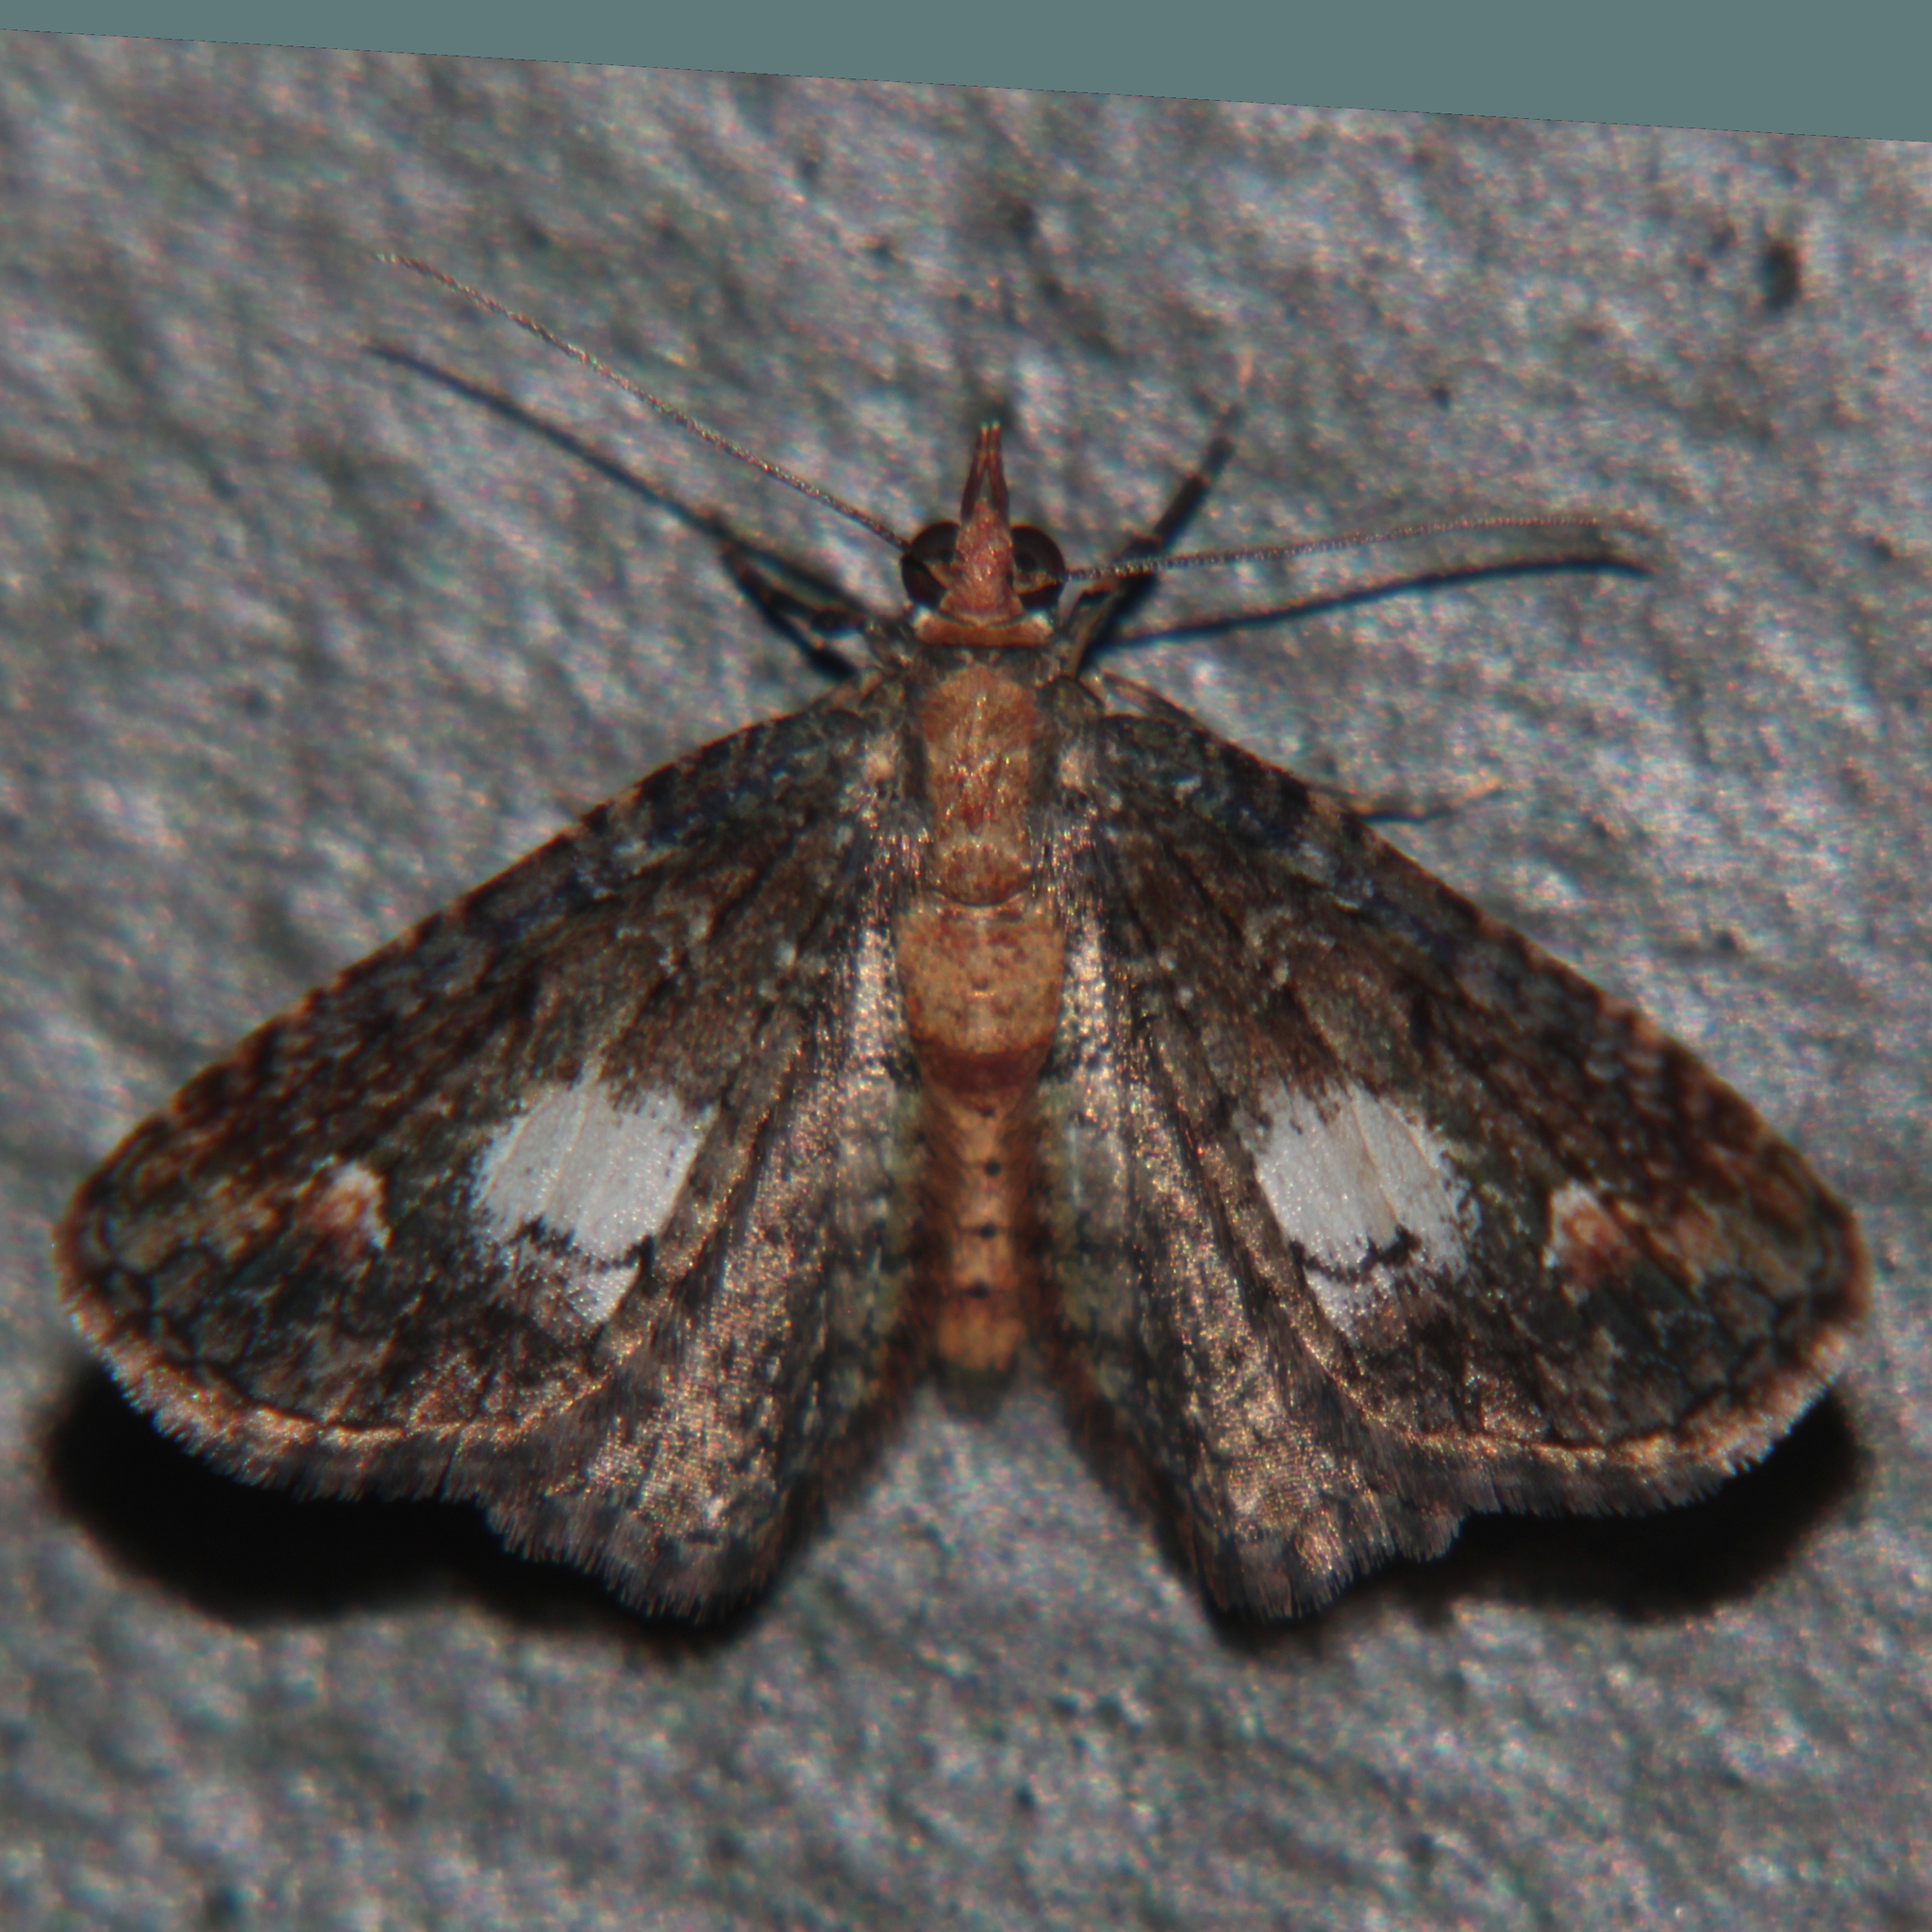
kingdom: Animalia
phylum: Arthropoda
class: Insecta
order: Lepidoptera
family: Geometridae
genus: Pasiphilodes
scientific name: Pasiphilodes testulata
